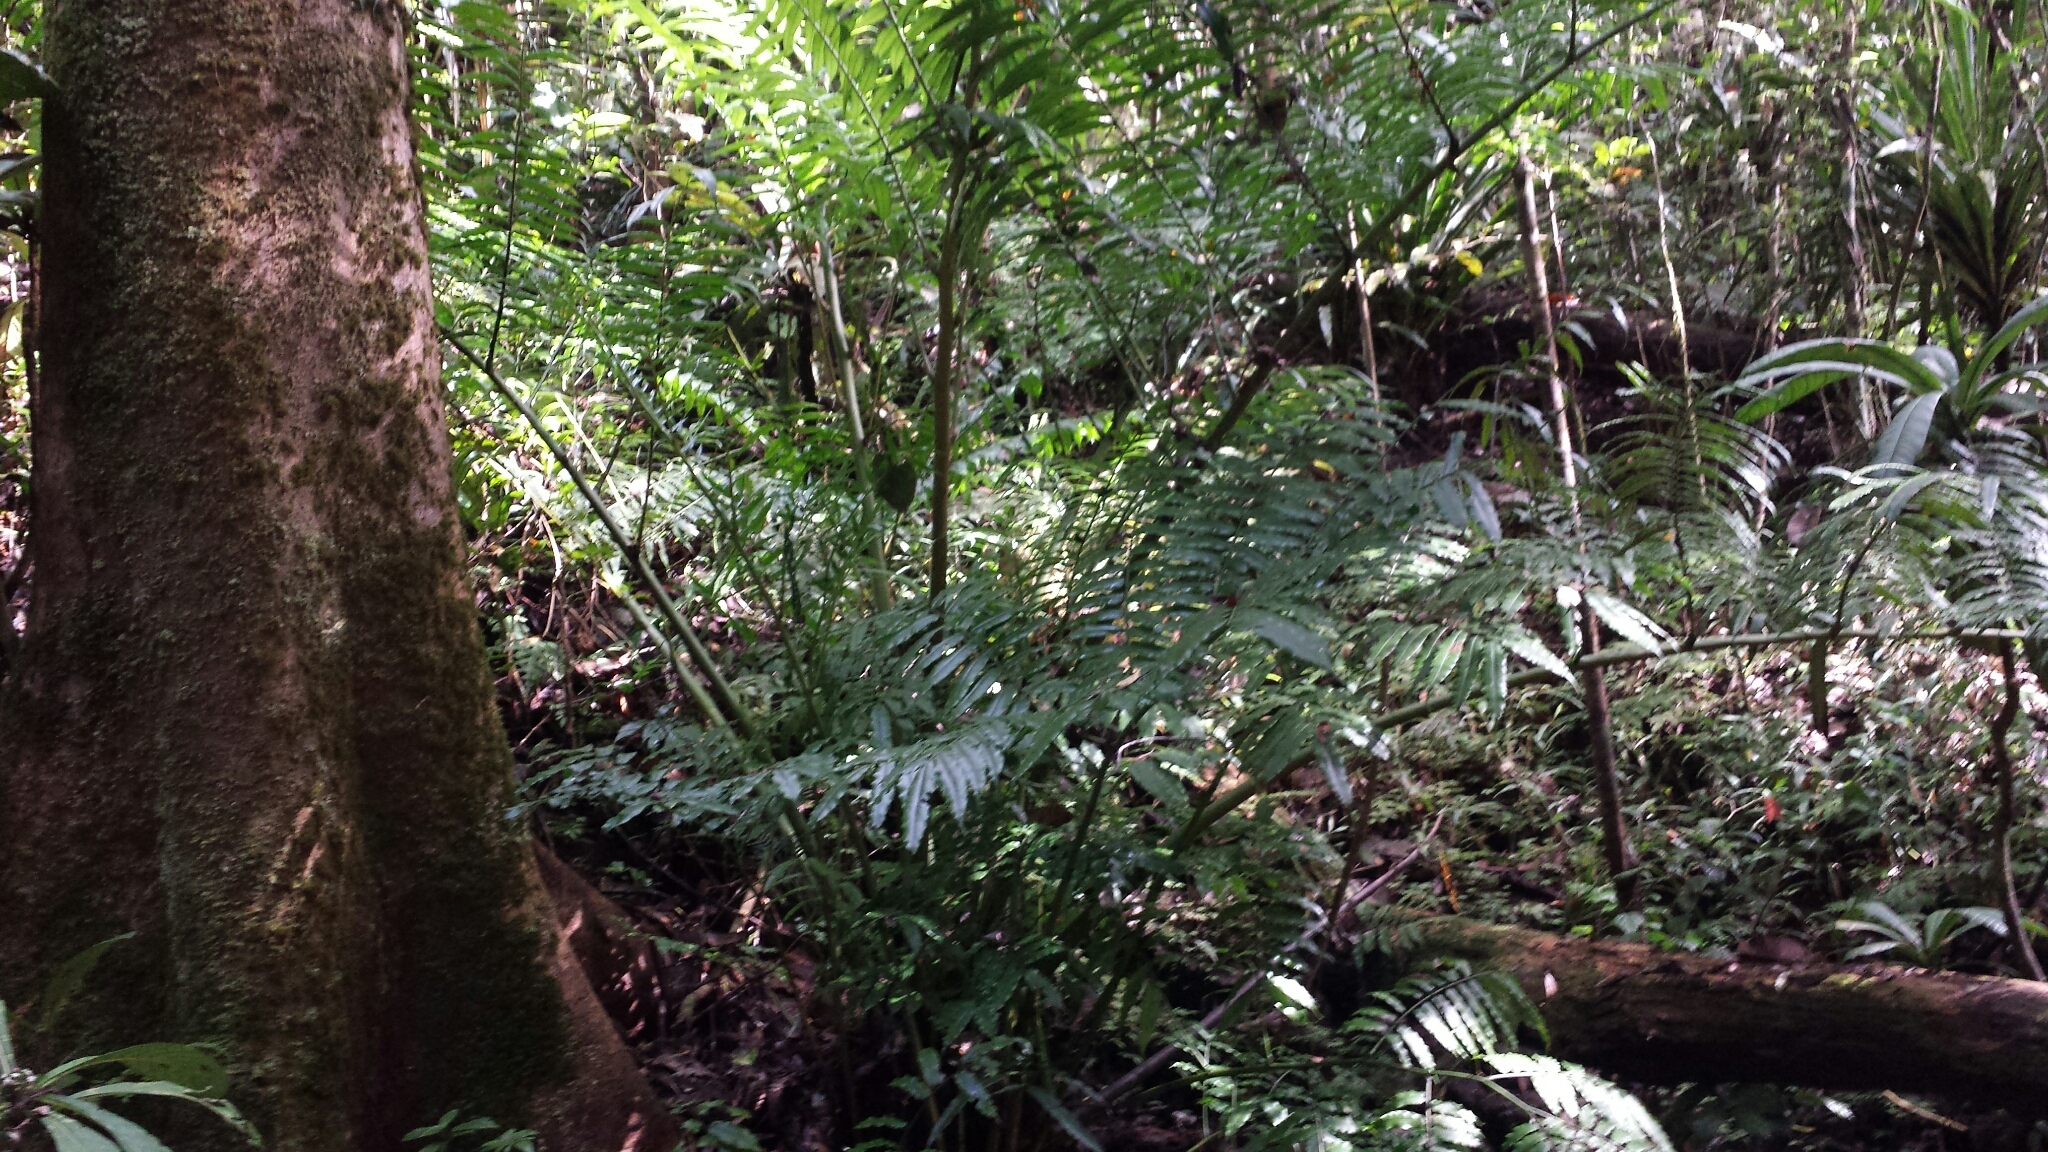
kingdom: Plantae
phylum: Tracheophyta
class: Polypodiopsida
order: Marattiales
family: Marattiaceae
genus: Angiopteris
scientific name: Angiopteris madagascariensis
